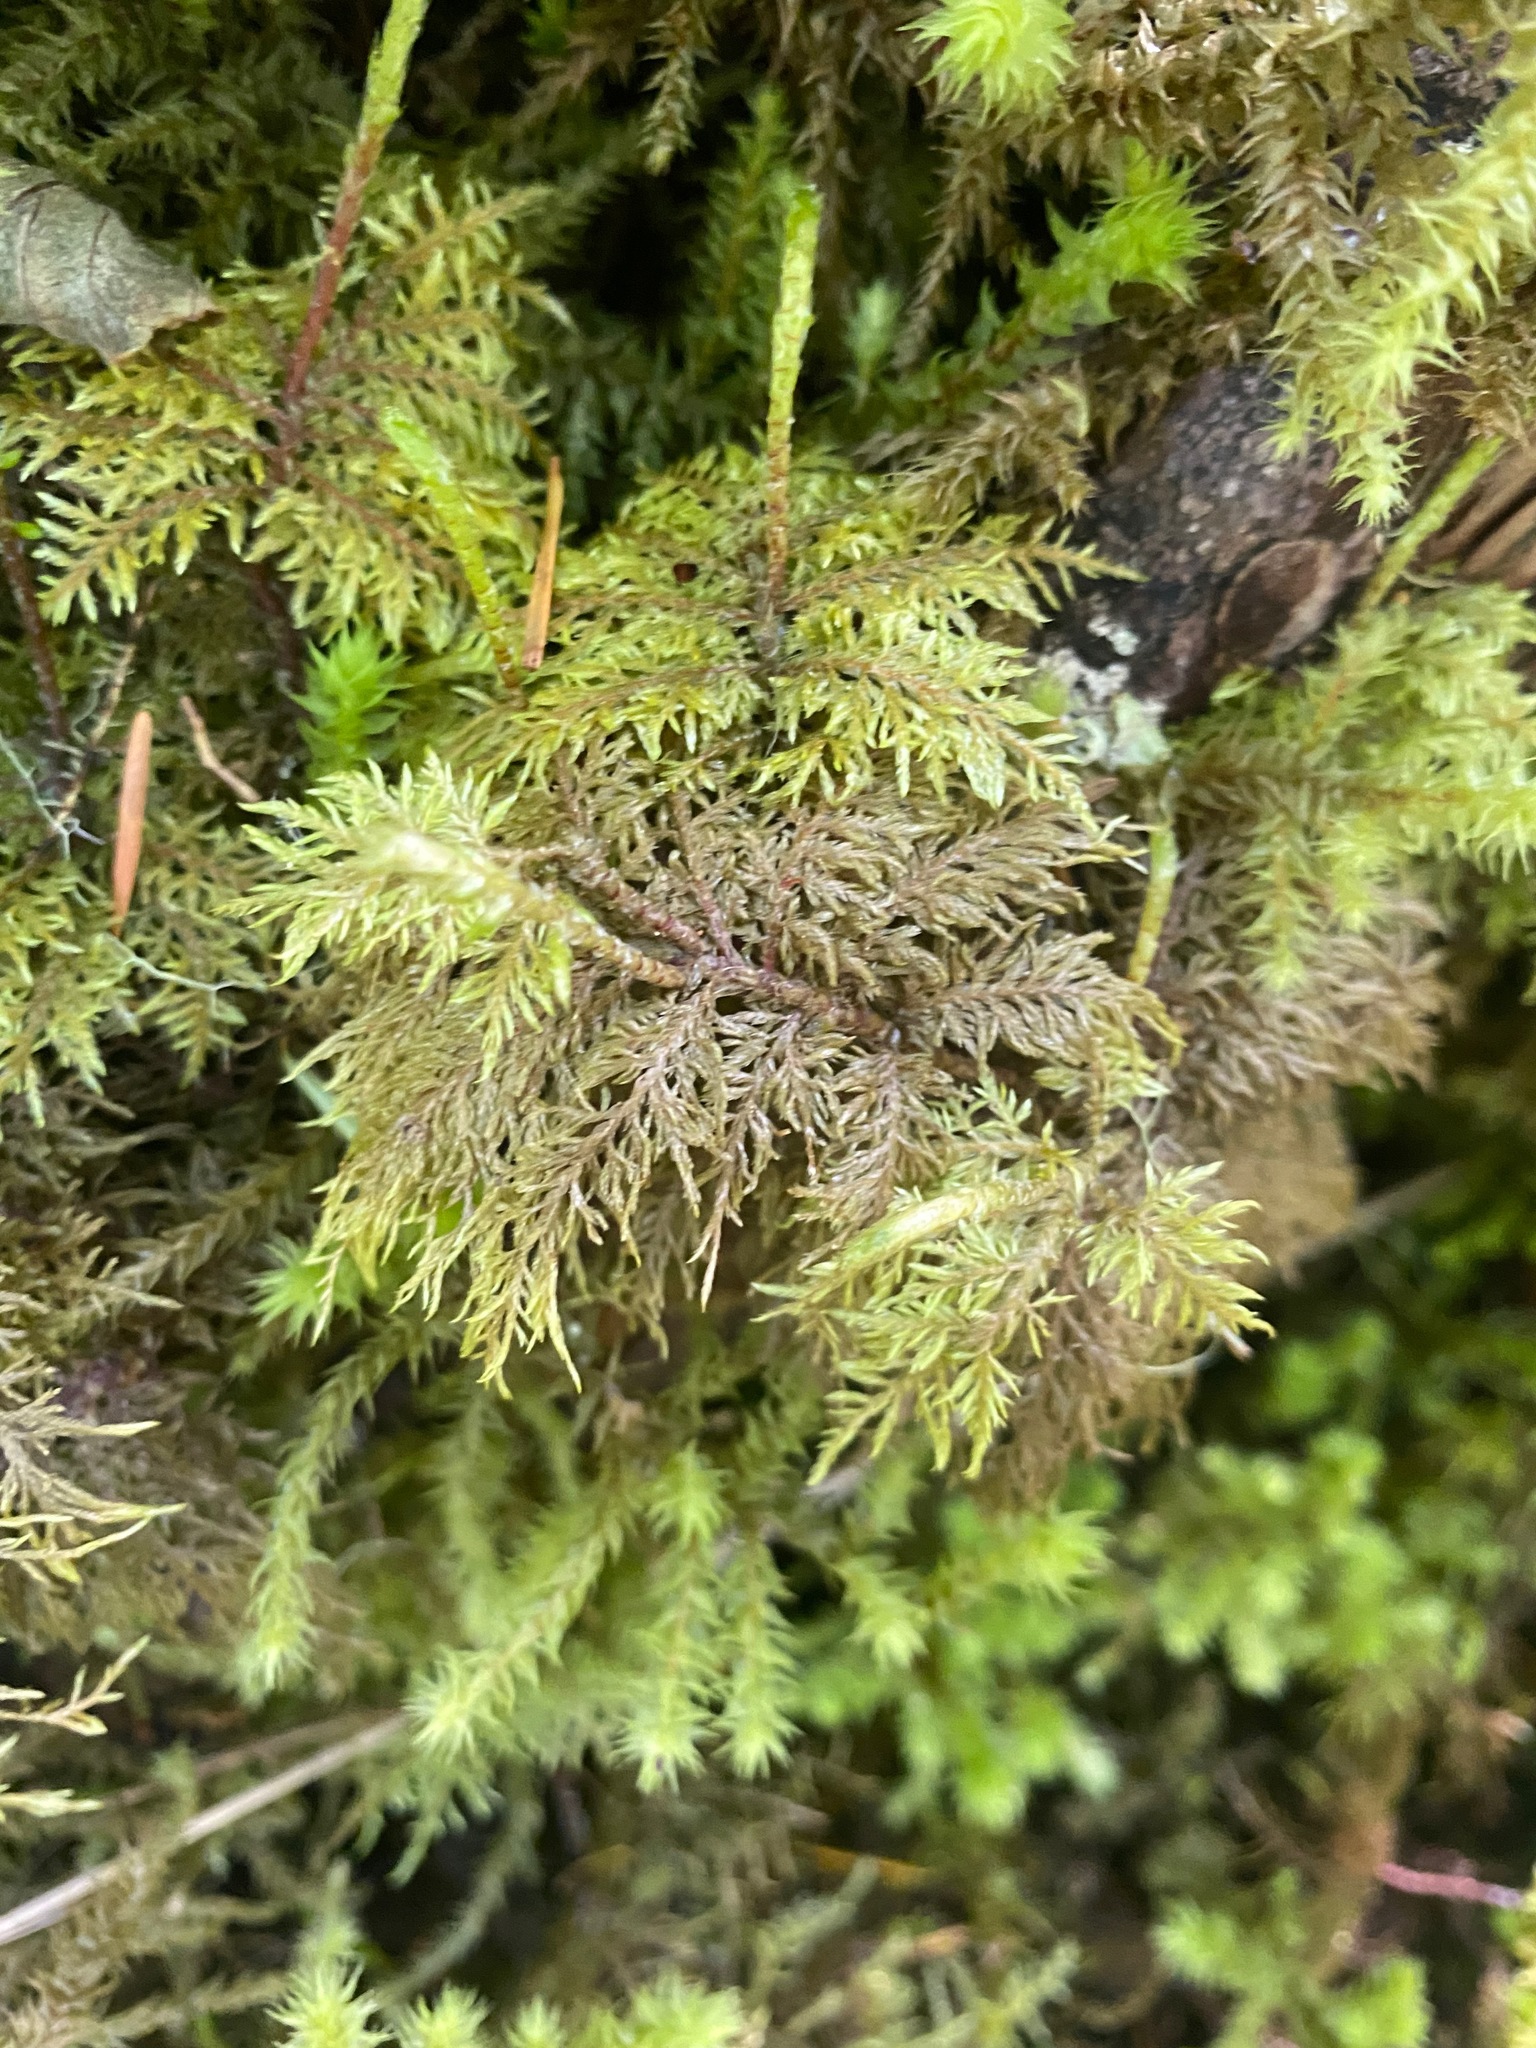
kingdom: Plantae
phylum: Bryophyta
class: Bryopsida
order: Hypnales
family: Hylocomiaceae
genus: Hylocomium
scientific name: Hylocomium splendens
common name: Stairstep moss
